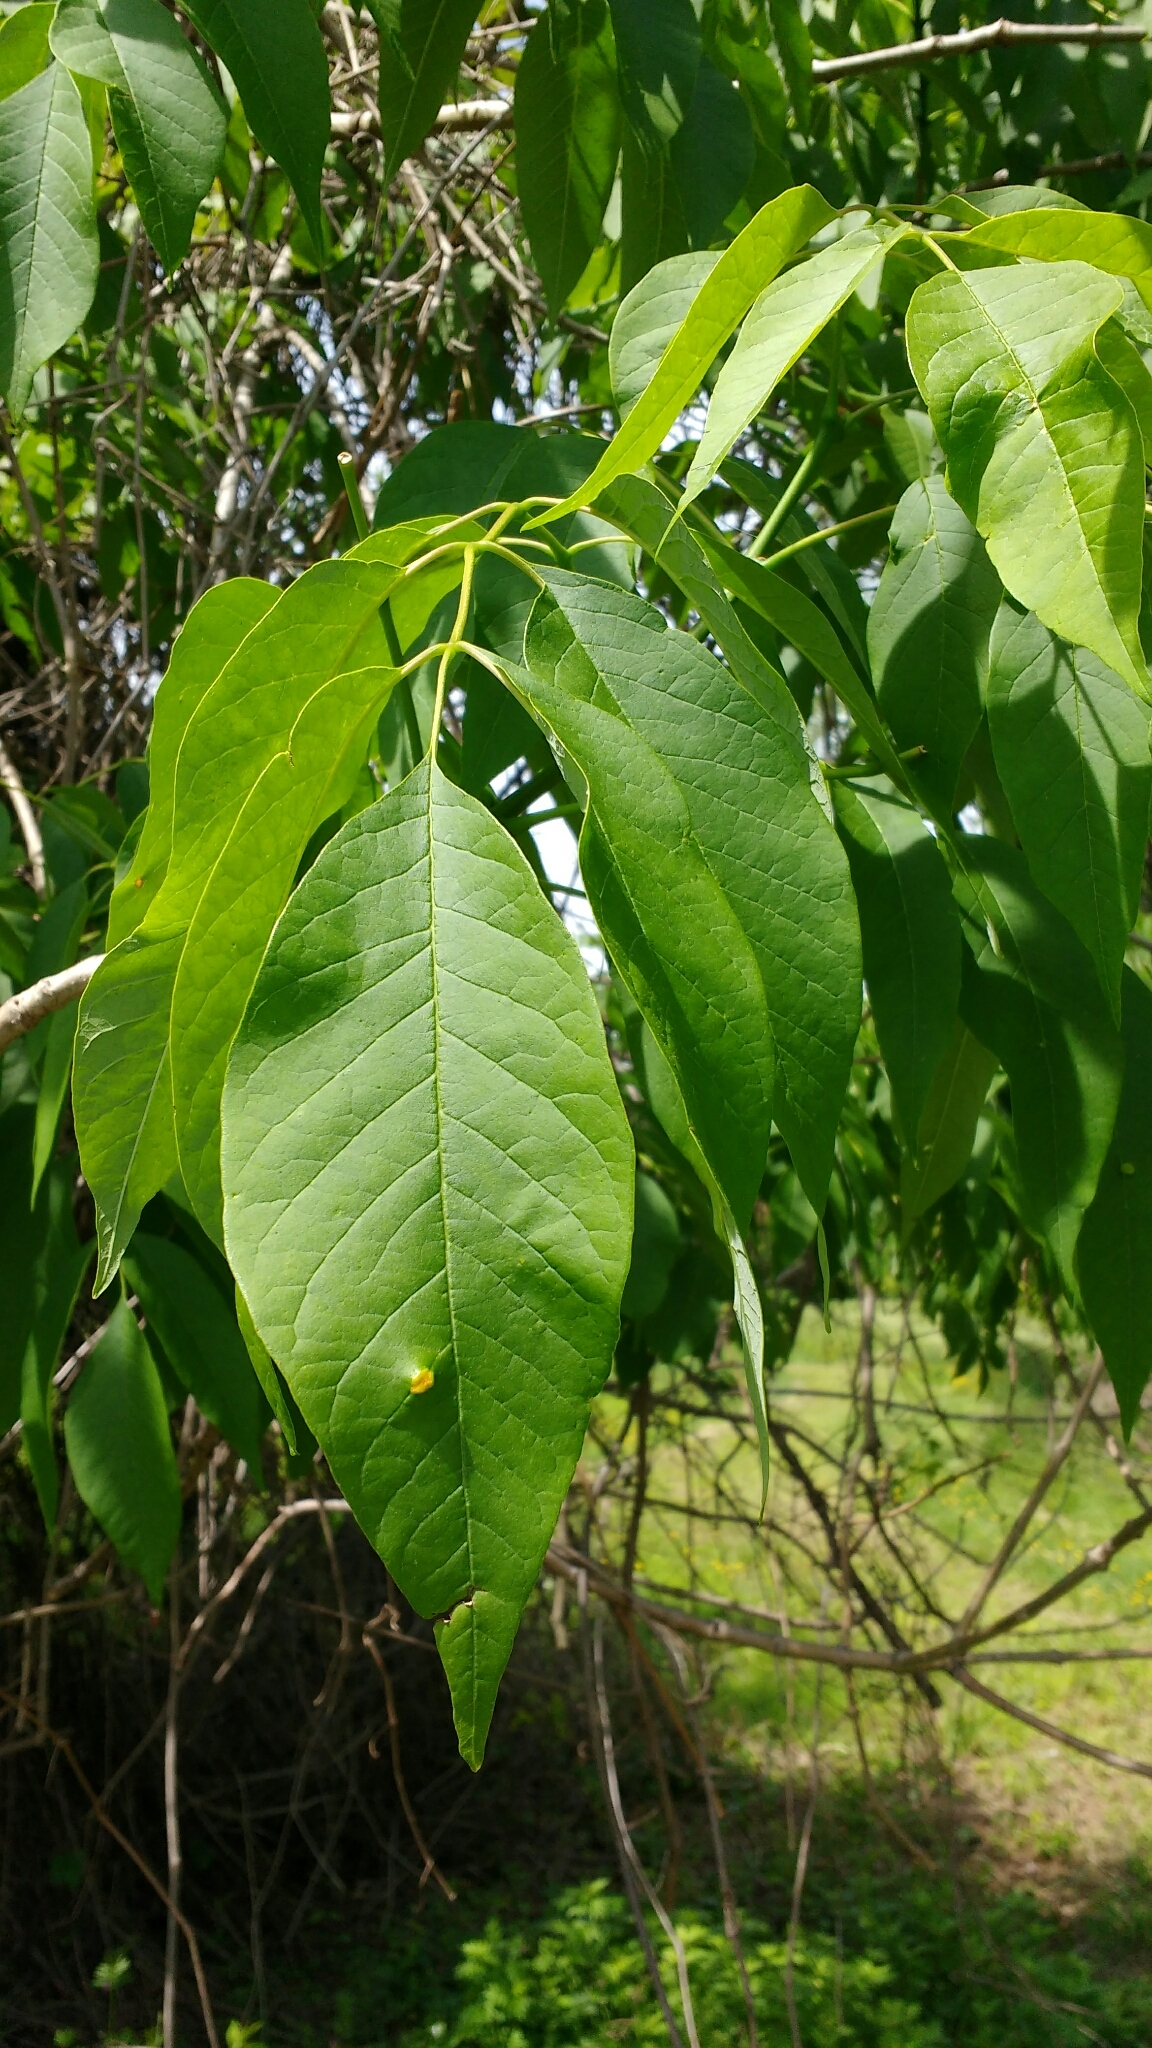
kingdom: Plantae
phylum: Tracheophyta
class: Magnoliopsida
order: Lamiales
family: Oleaceae
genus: Fraxinus
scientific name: Fraxinus americana
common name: White ash
